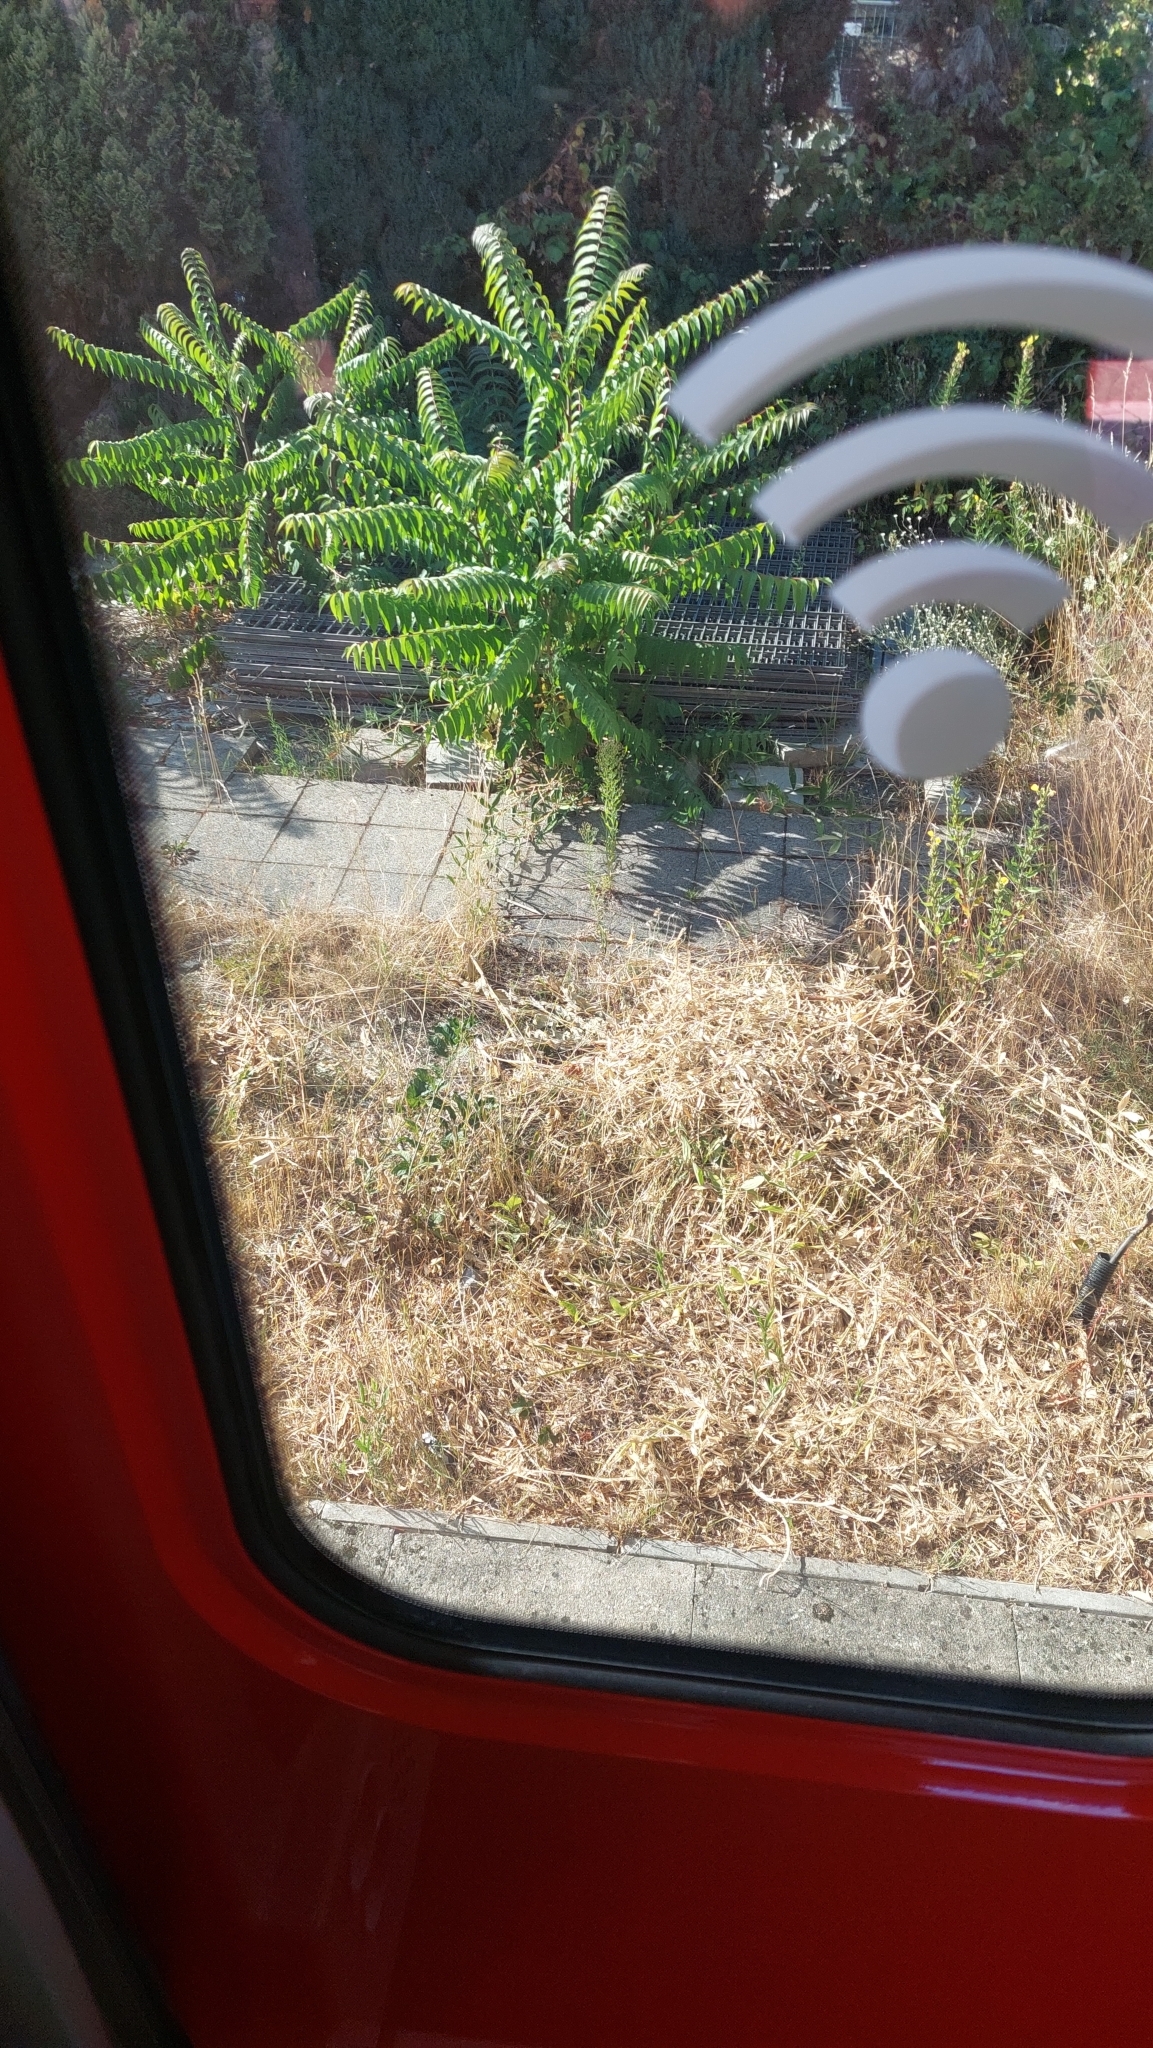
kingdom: Plantae
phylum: Tracheophyta
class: Magnoliopsida
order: Sapindales
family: Simaroubaceae
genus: Ailanthus
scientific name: Ailanthus altissima
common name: Tree-of-heaven
